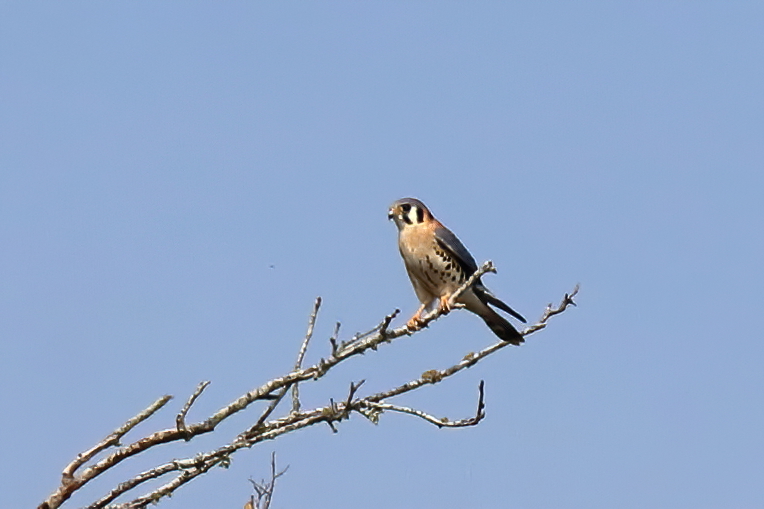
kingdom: Animalia
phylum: Chordata
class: Aves
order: Falconiformes
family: Falconidae
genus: Falco
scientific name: Falco sparverius
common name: American kestrel
